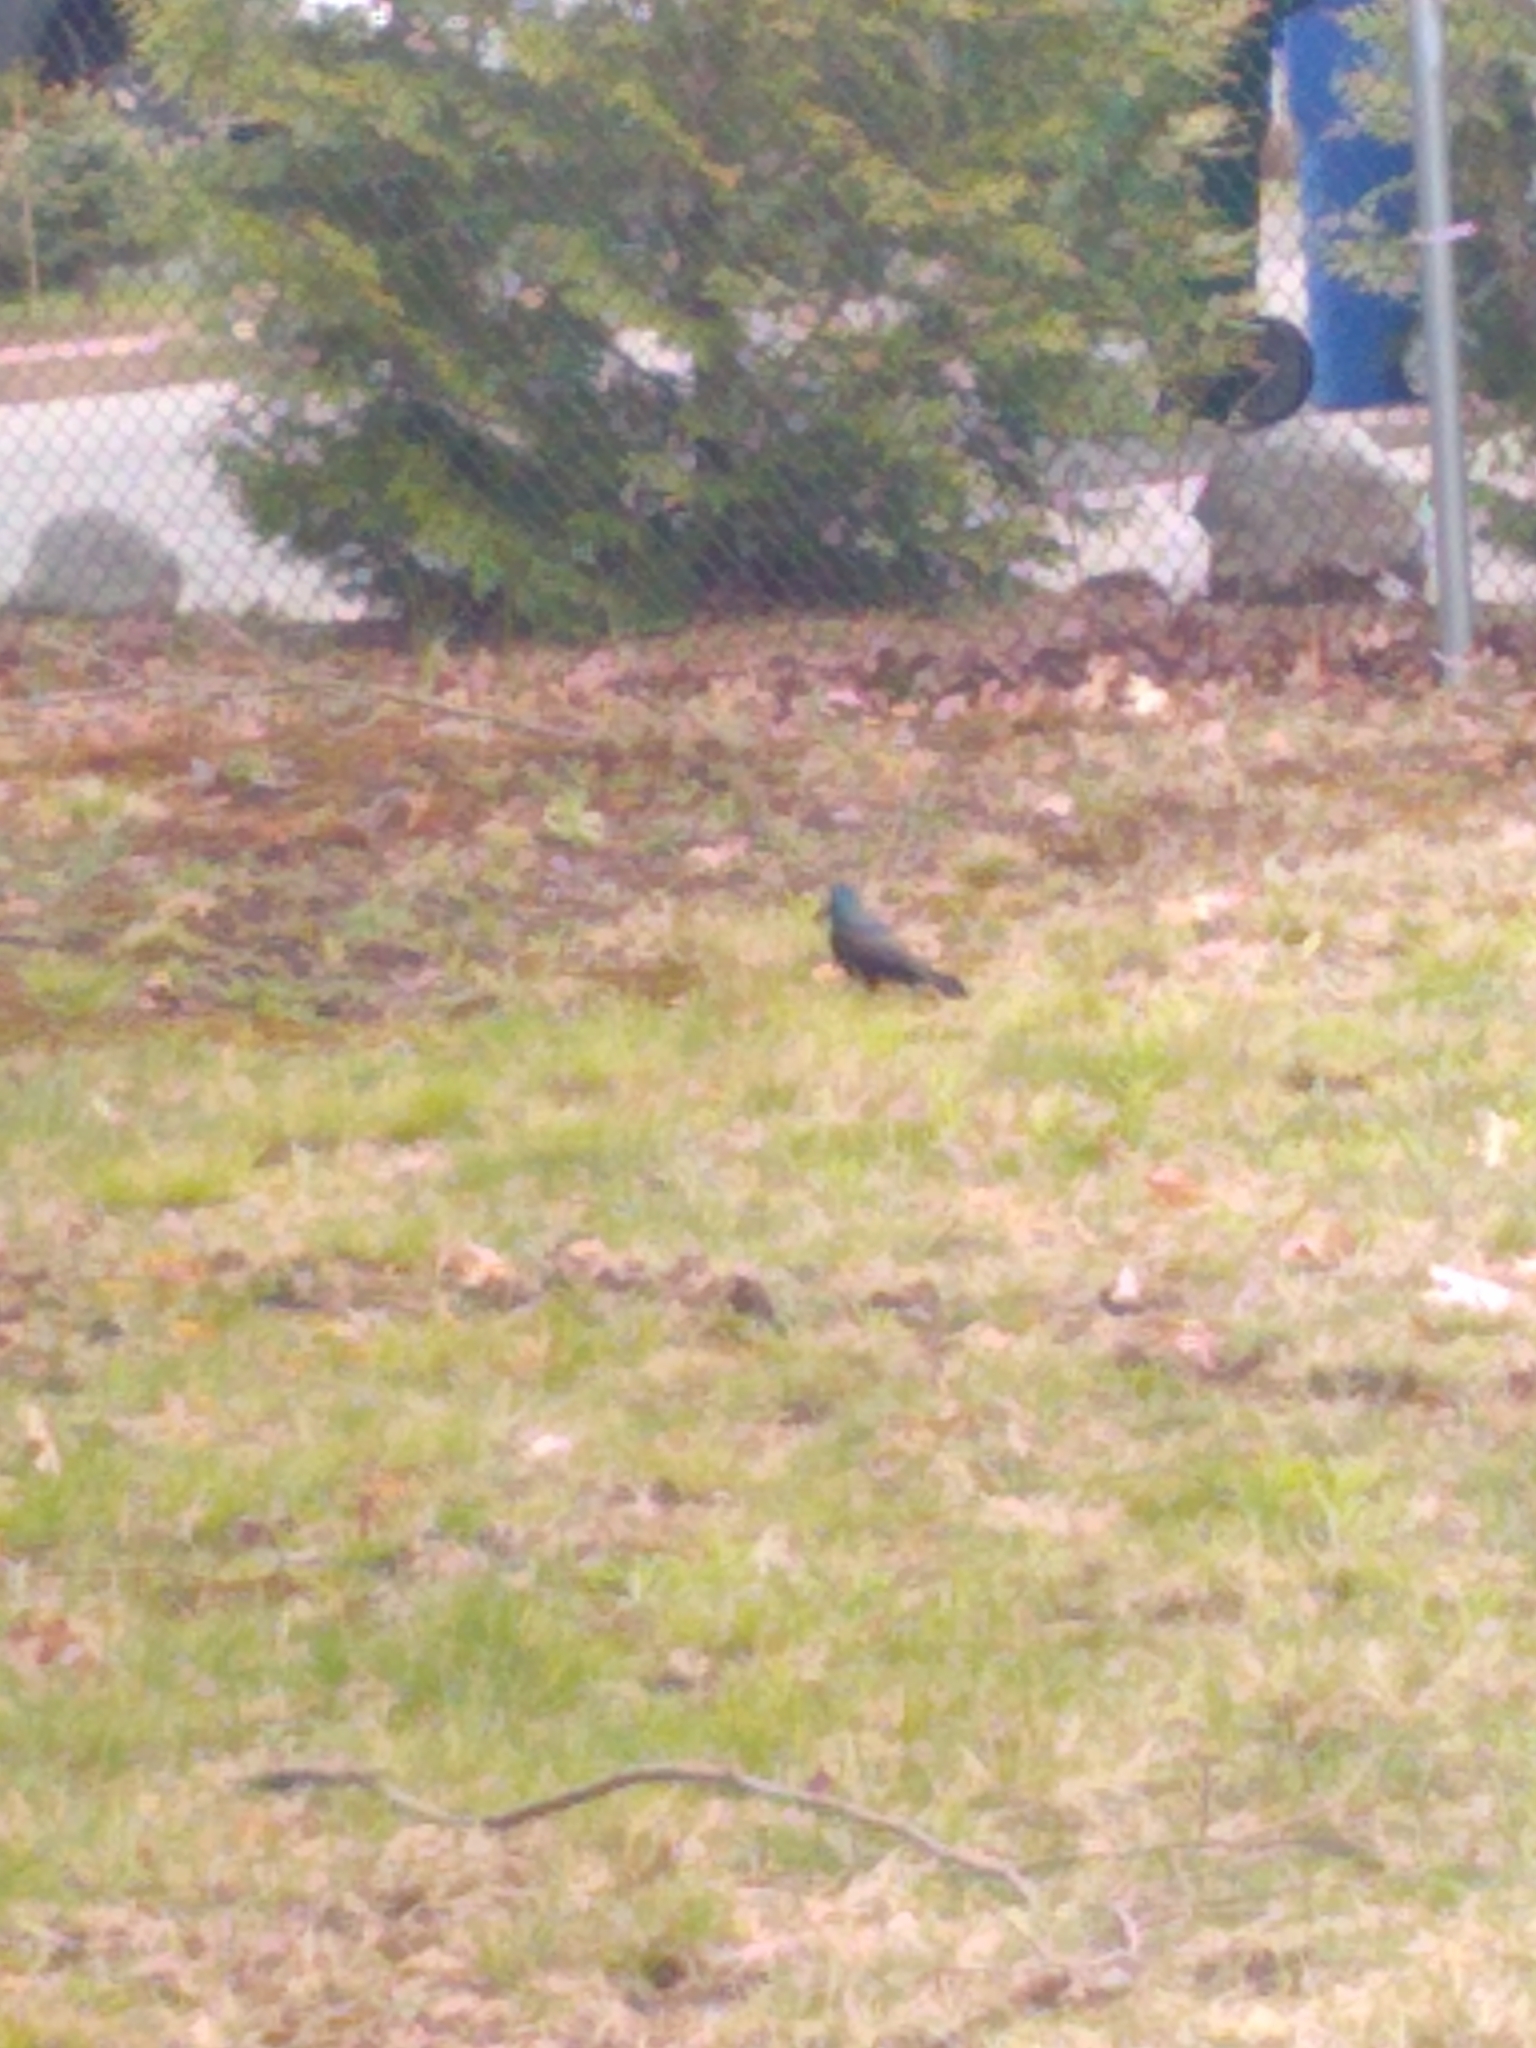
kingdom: Animalia
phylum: Chordata
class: Aves
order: Passeriformes
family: Icteridae
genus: Quiscalus
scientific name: Quiscalus quiscula
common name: Common grackle
